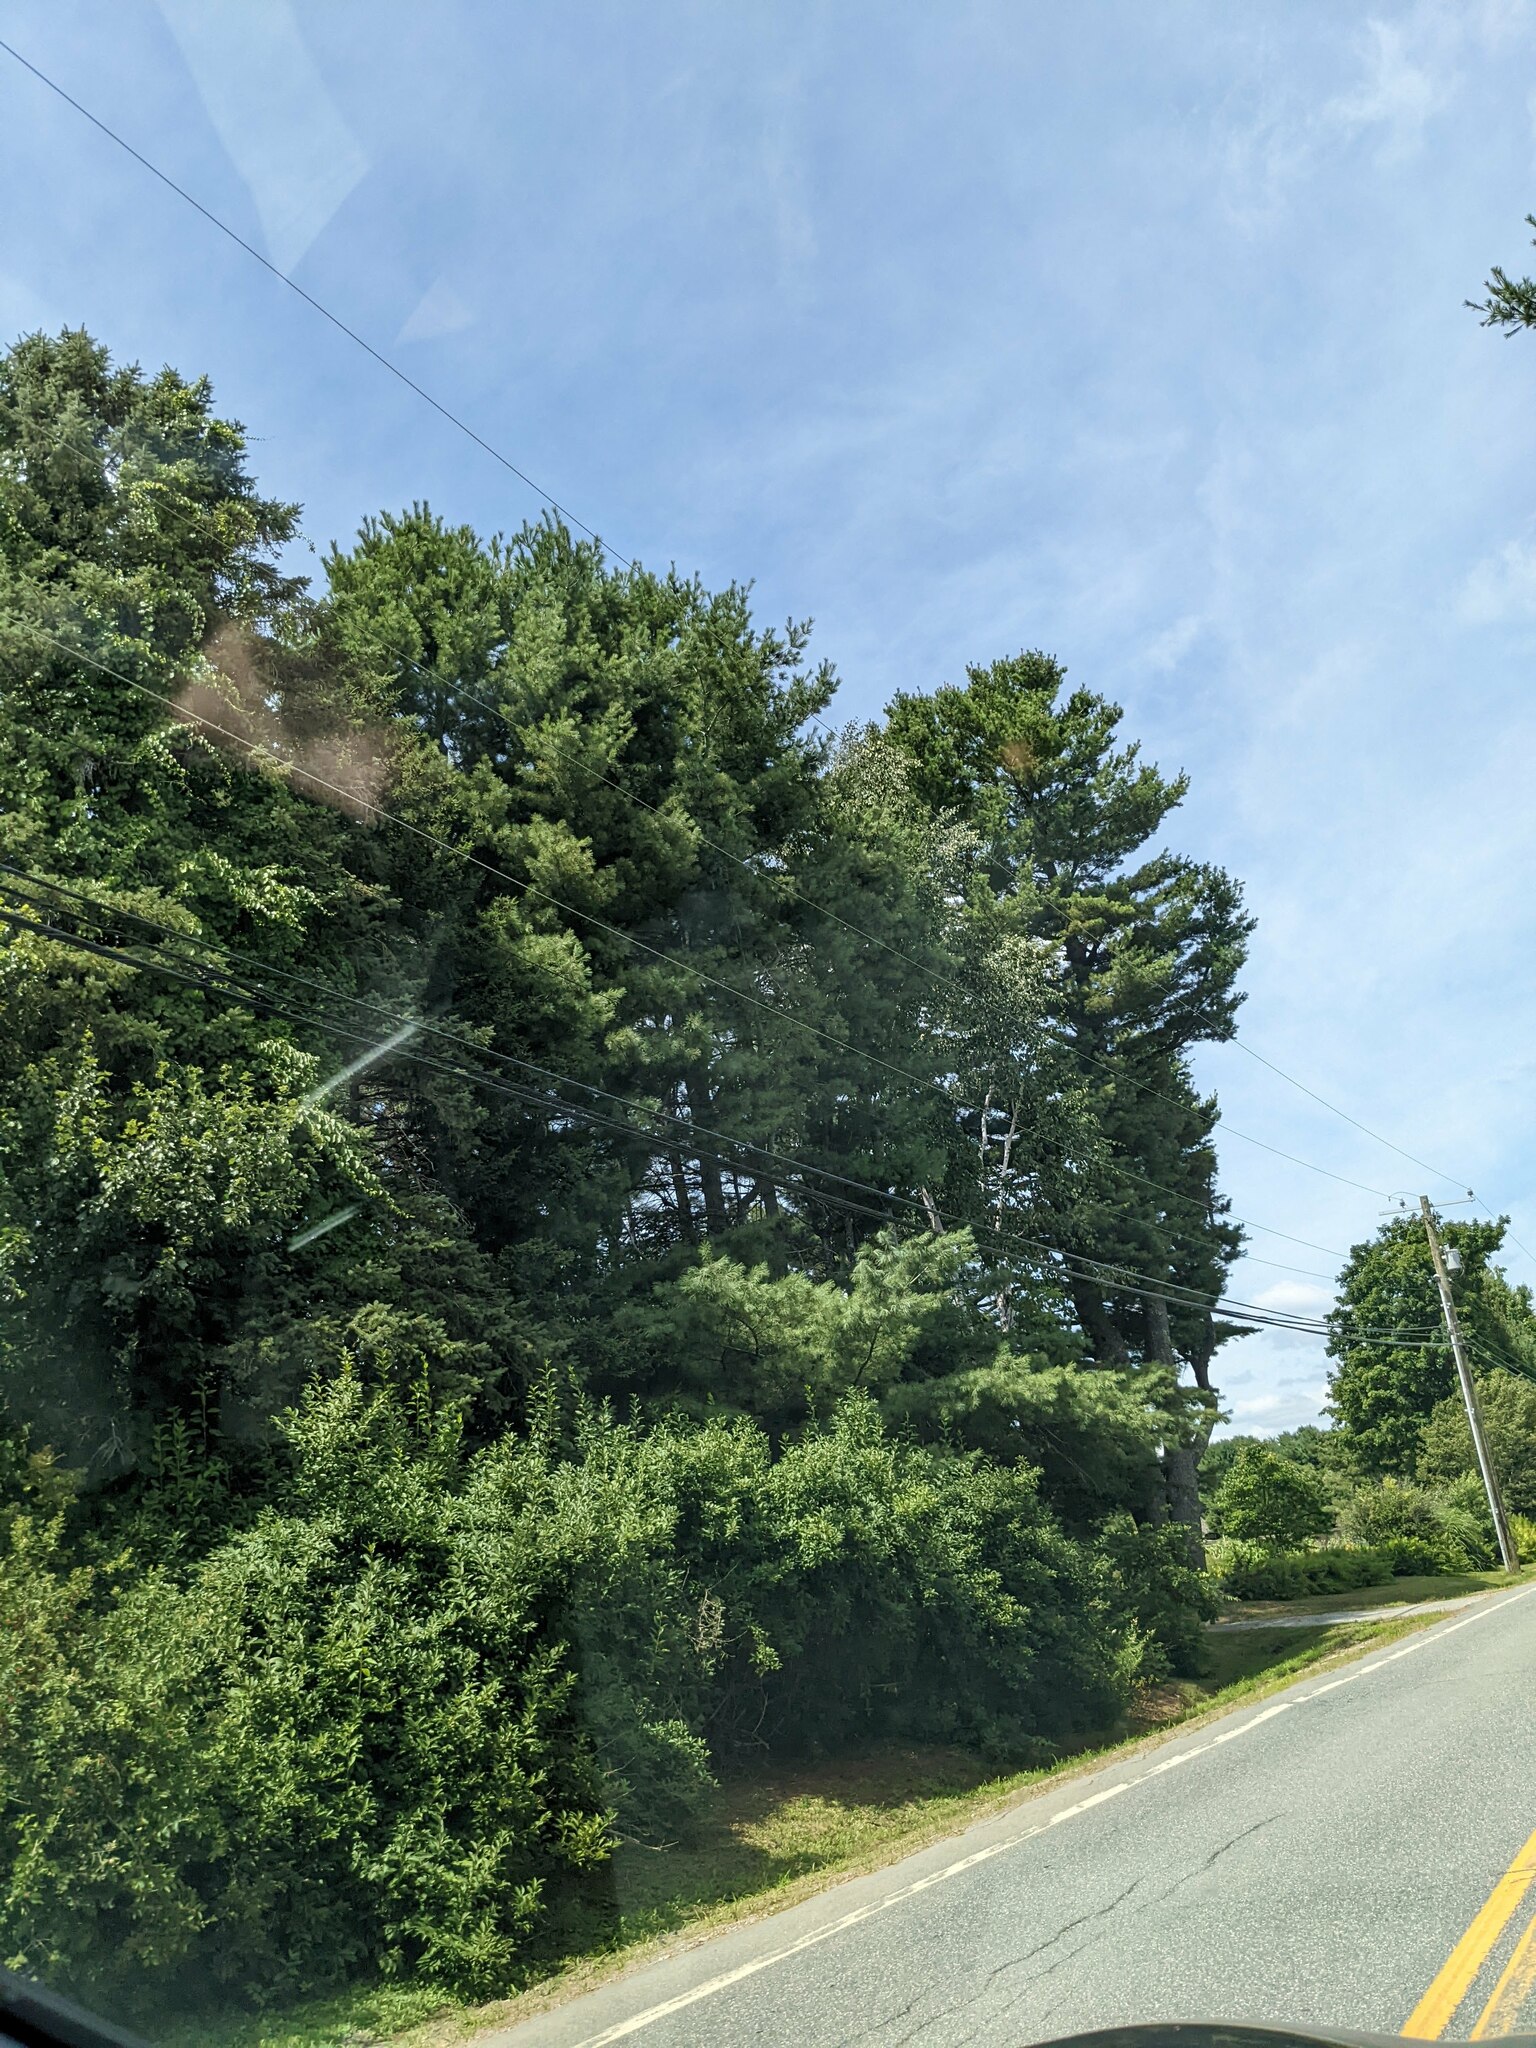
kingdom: Plantae
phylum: Tracheophyta
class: Pinopsida
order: Pinales
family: Pinaceae
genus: Pinus
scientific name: Pinus strobus
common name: Weymouth pine
